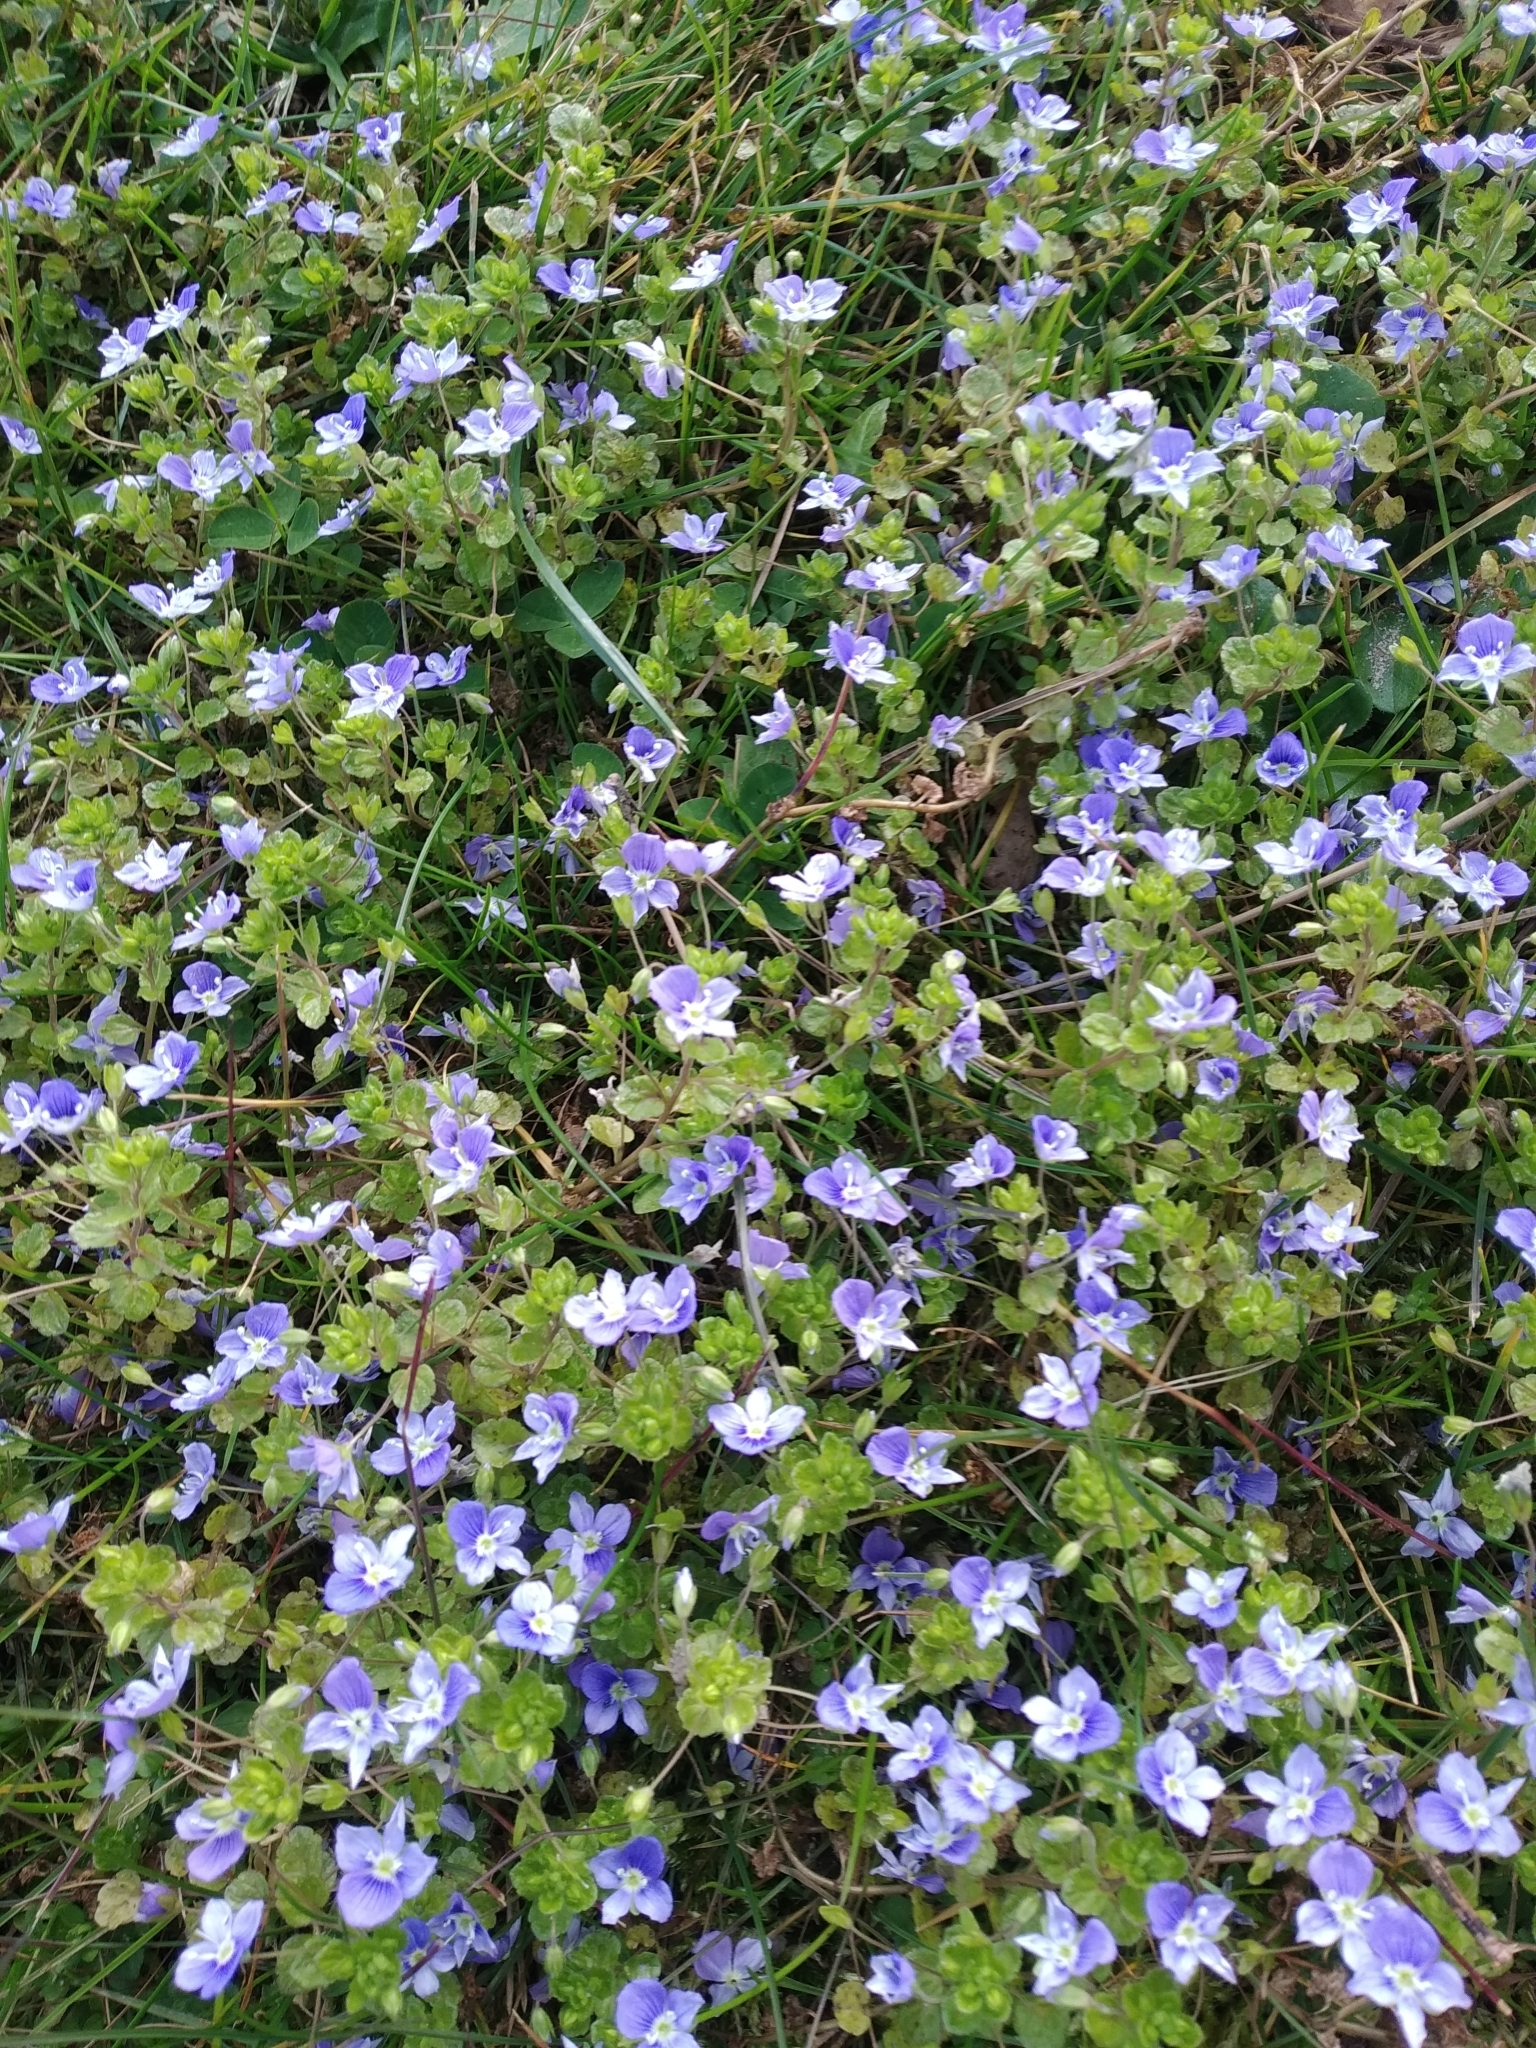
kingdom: Plantae
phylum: Tracheophyta
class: Magnoliopsida
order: Lamiales
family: Plantaginaceae
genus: Veronica
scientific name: Veronica filiformis
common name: Slender speedwell
